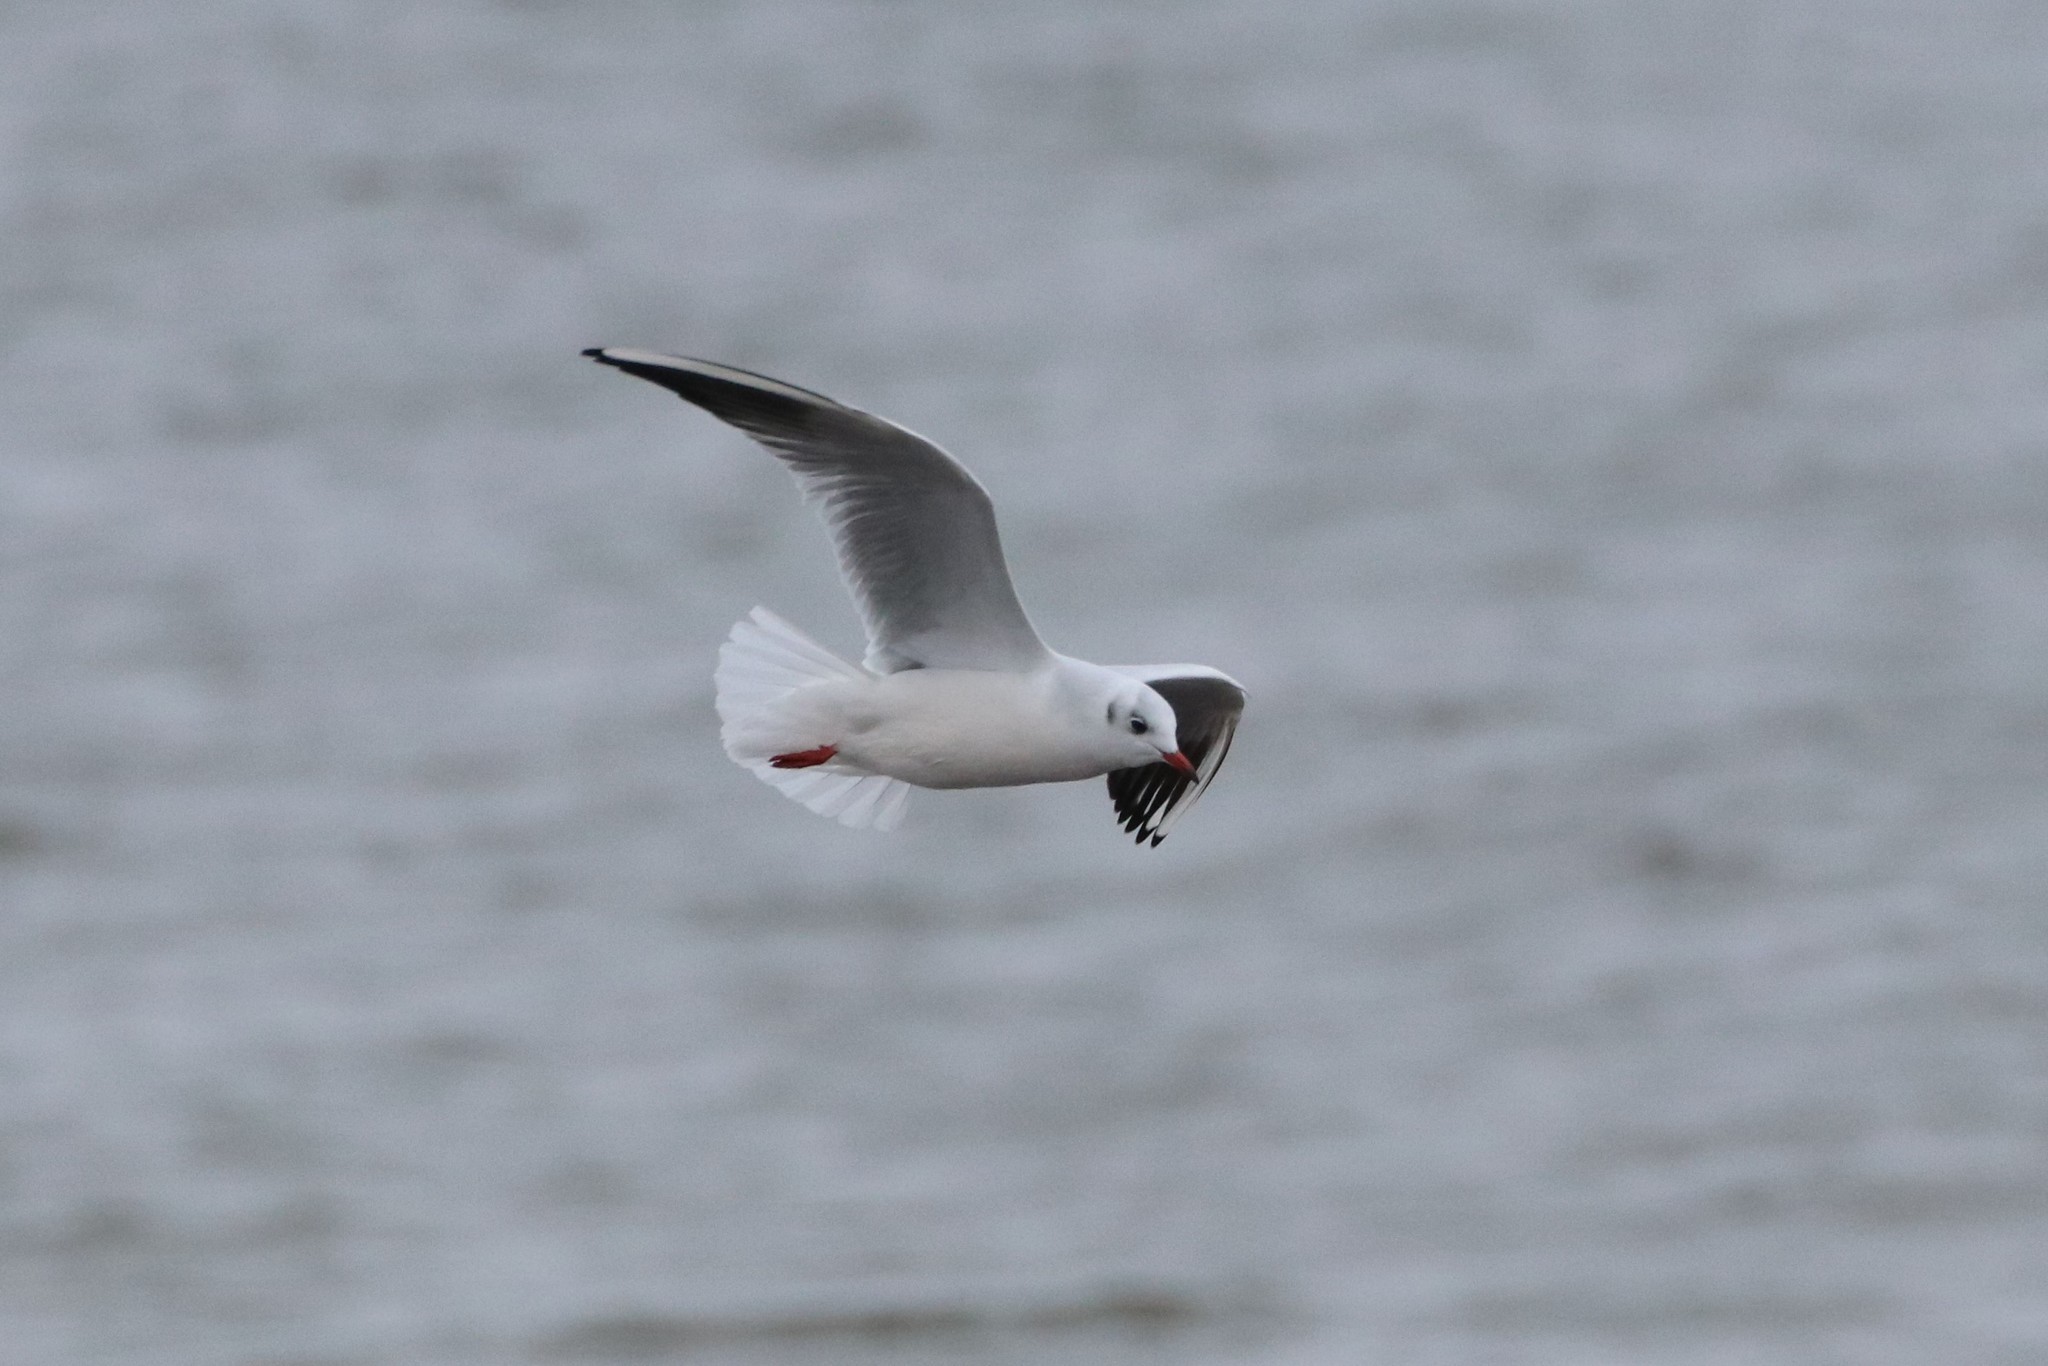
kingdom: Animalia
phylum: Chordata
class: Aves
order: Charadriiformes
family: Laridae
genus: Chroicocephalus
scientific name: Chroicocephalus ridibundus
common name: Black-headed gull
